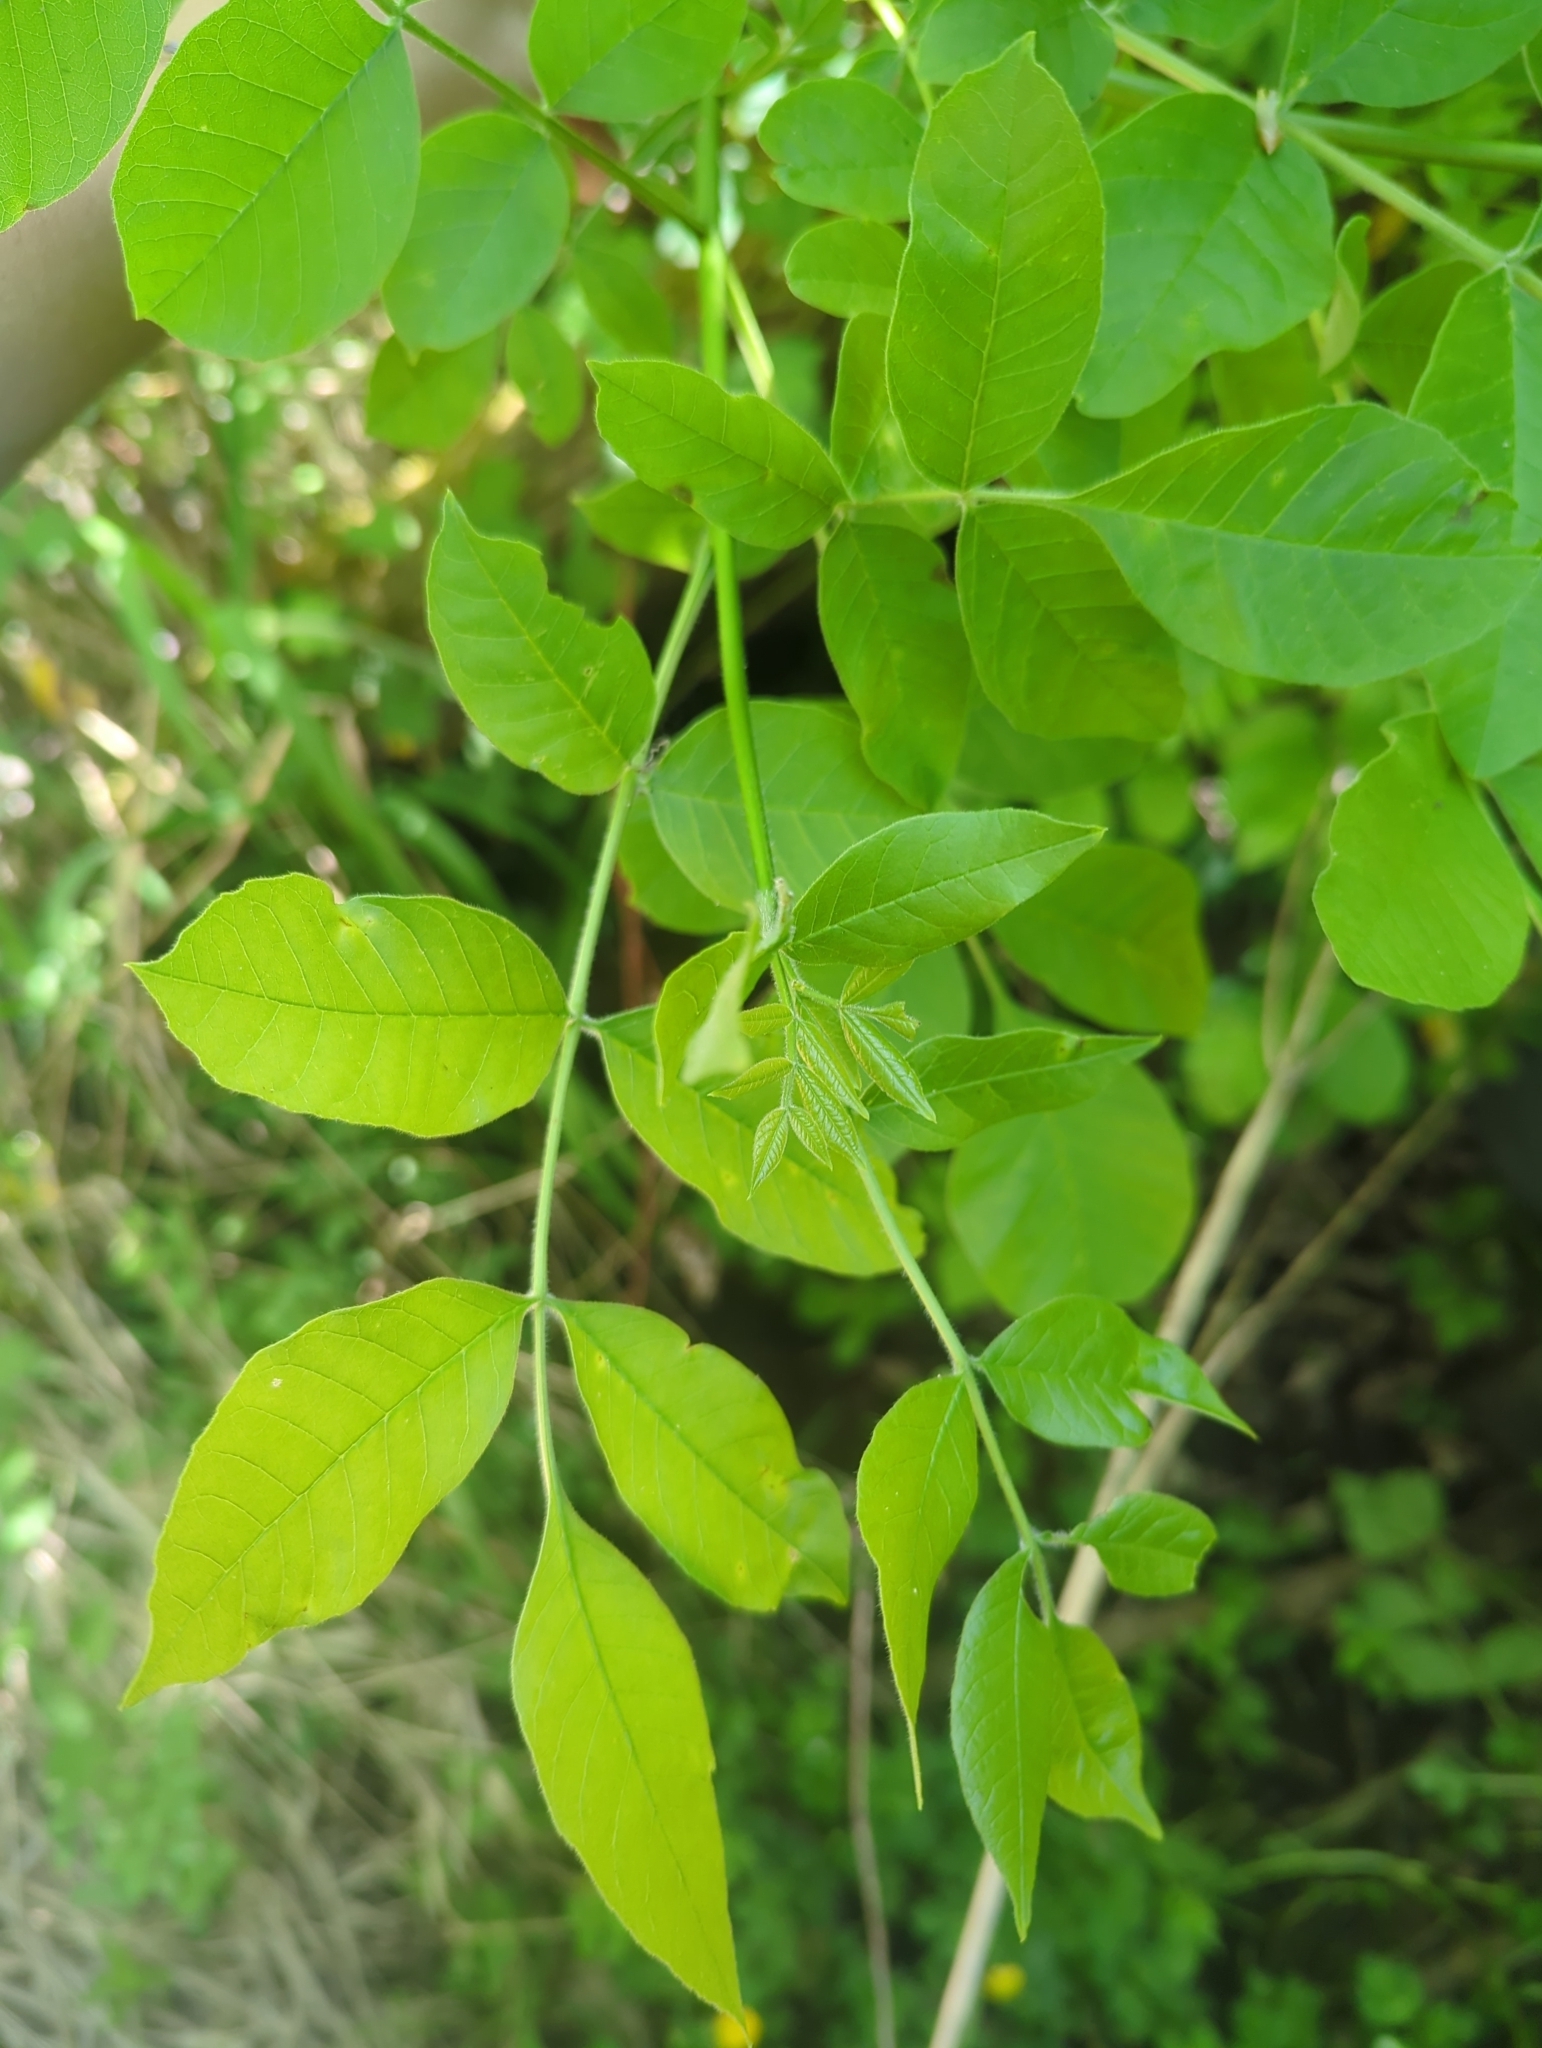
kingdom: Plantae
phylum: Tracheophyta
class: Magnoliopsida
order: Lamiales
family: Oleaceae
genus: Fraxinus
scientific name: Fraxinus latifolia
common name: Oregon ash
